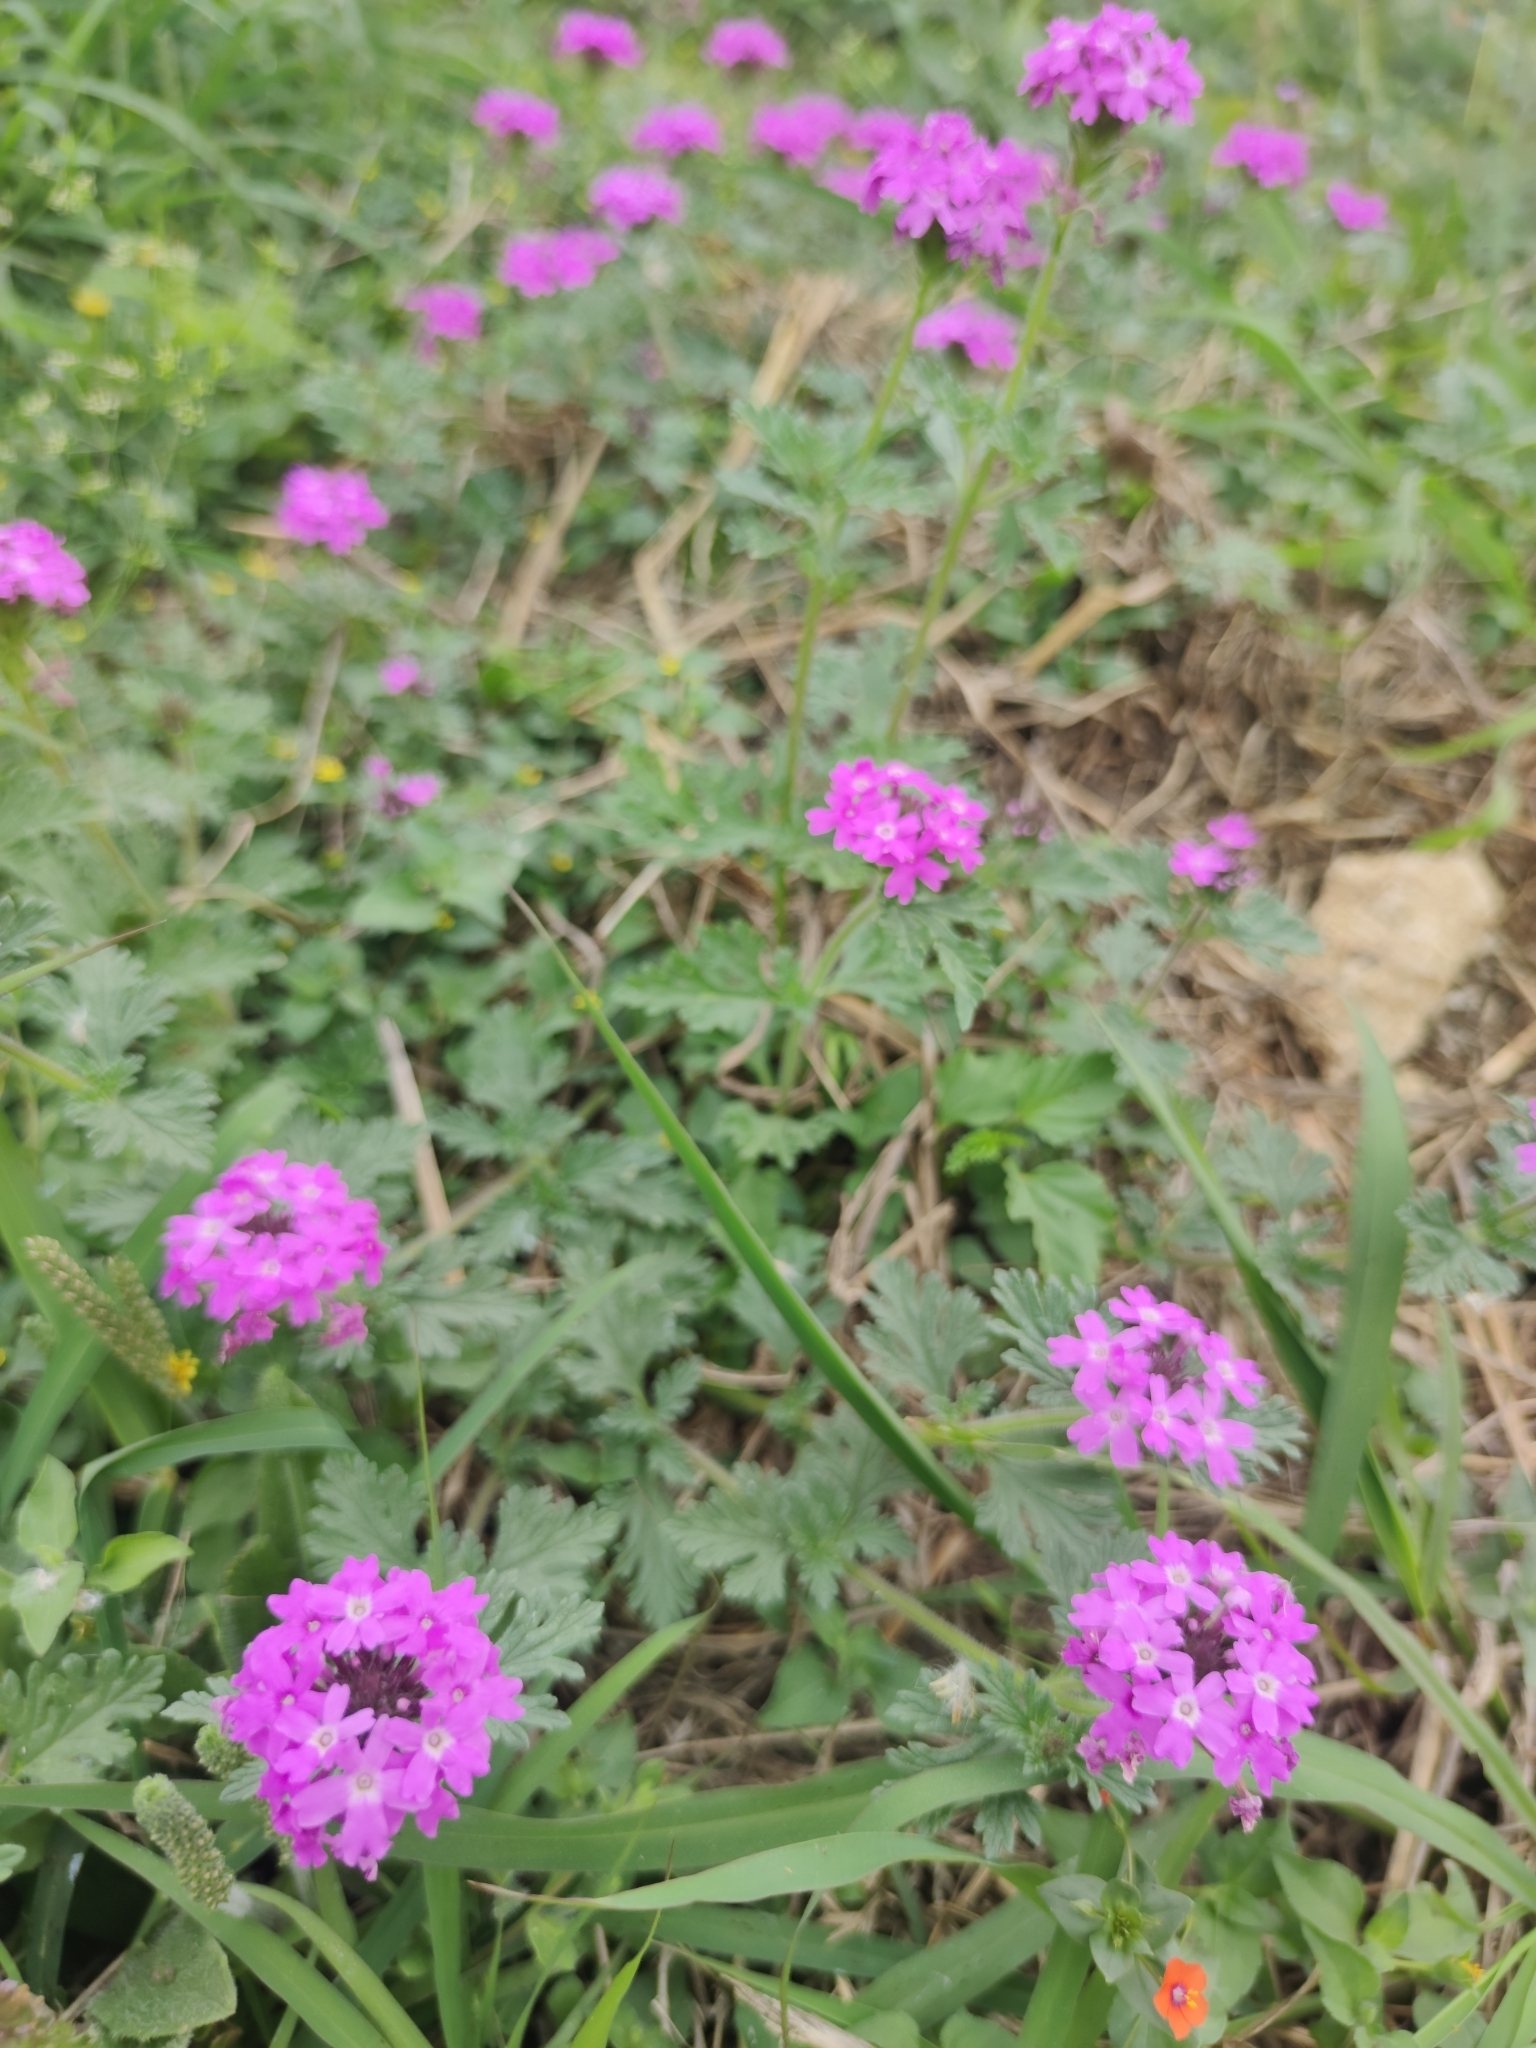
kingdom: Plantae
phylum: Tracheophyta
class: Magnoliopsida
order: Lamiales
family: Verbenaceae
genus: Verbena
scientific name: Verbena canadensis
